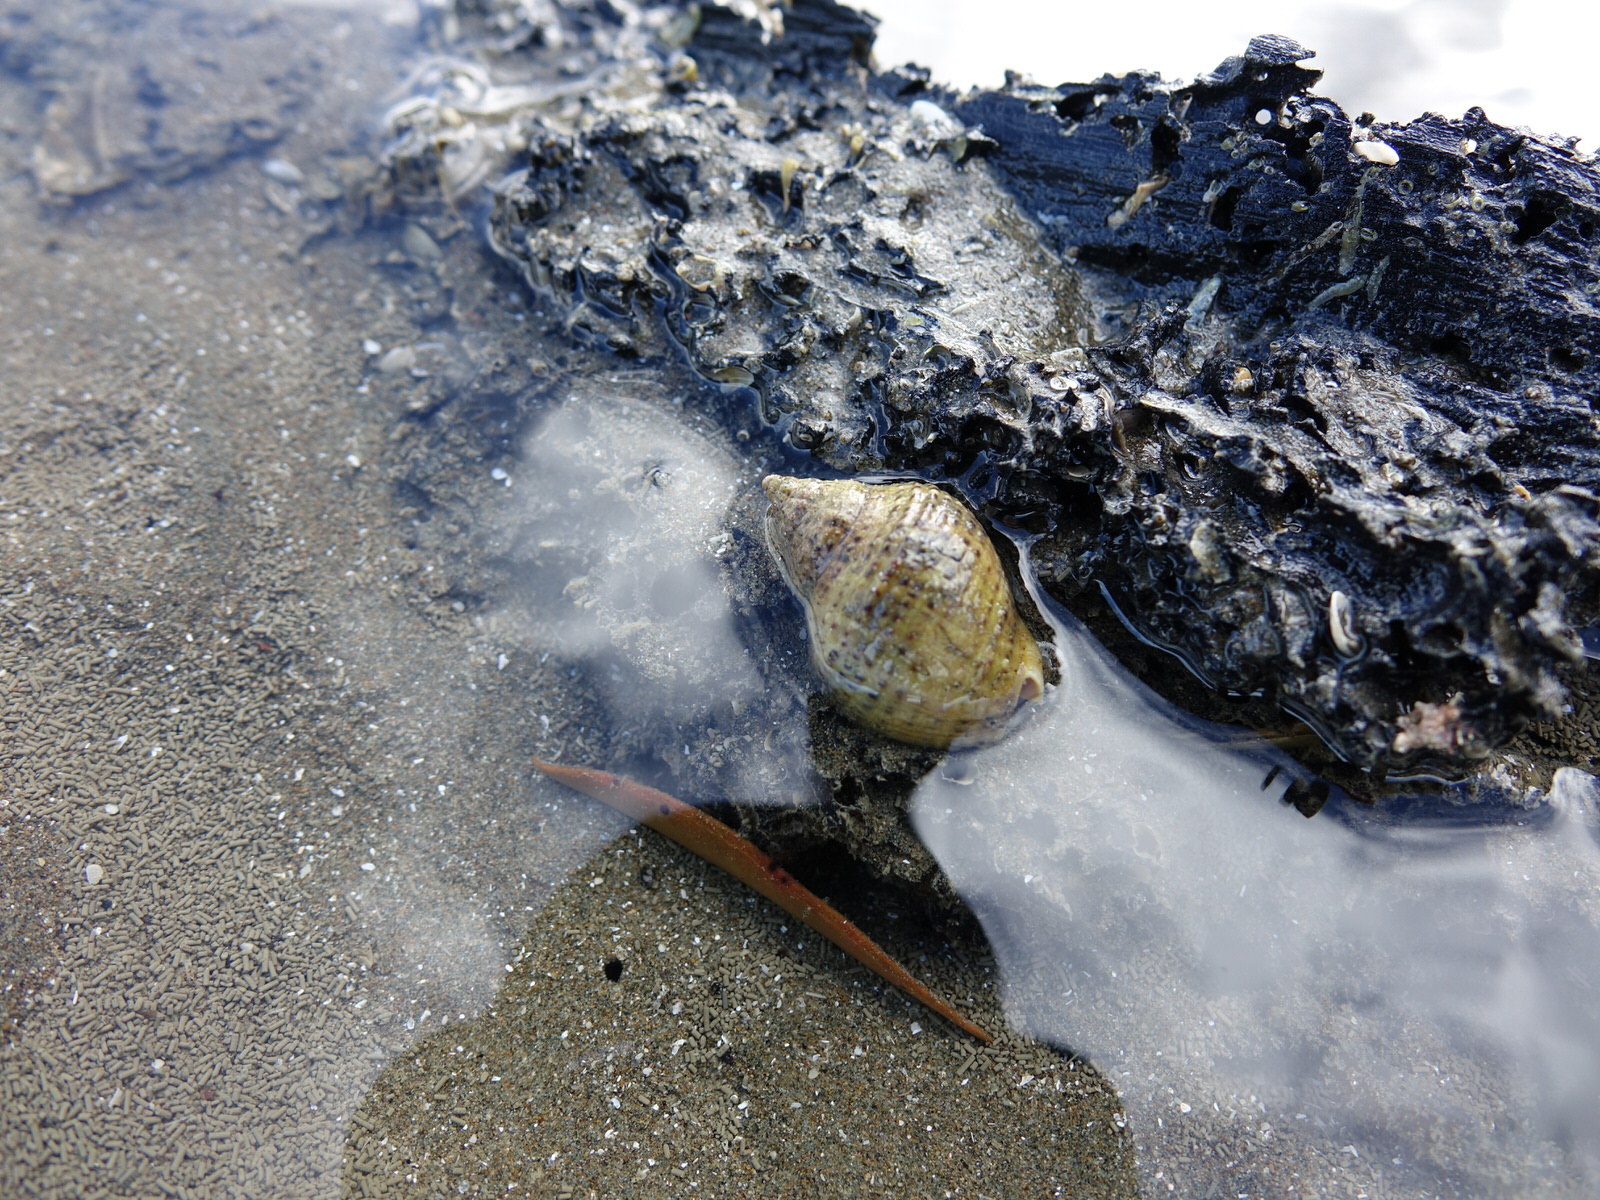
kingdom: Animalia
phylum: Mollusca
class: Gastropoda
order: Neogastropoda
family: Cominellidae
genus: Cominella
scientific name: Cominella adspersa
